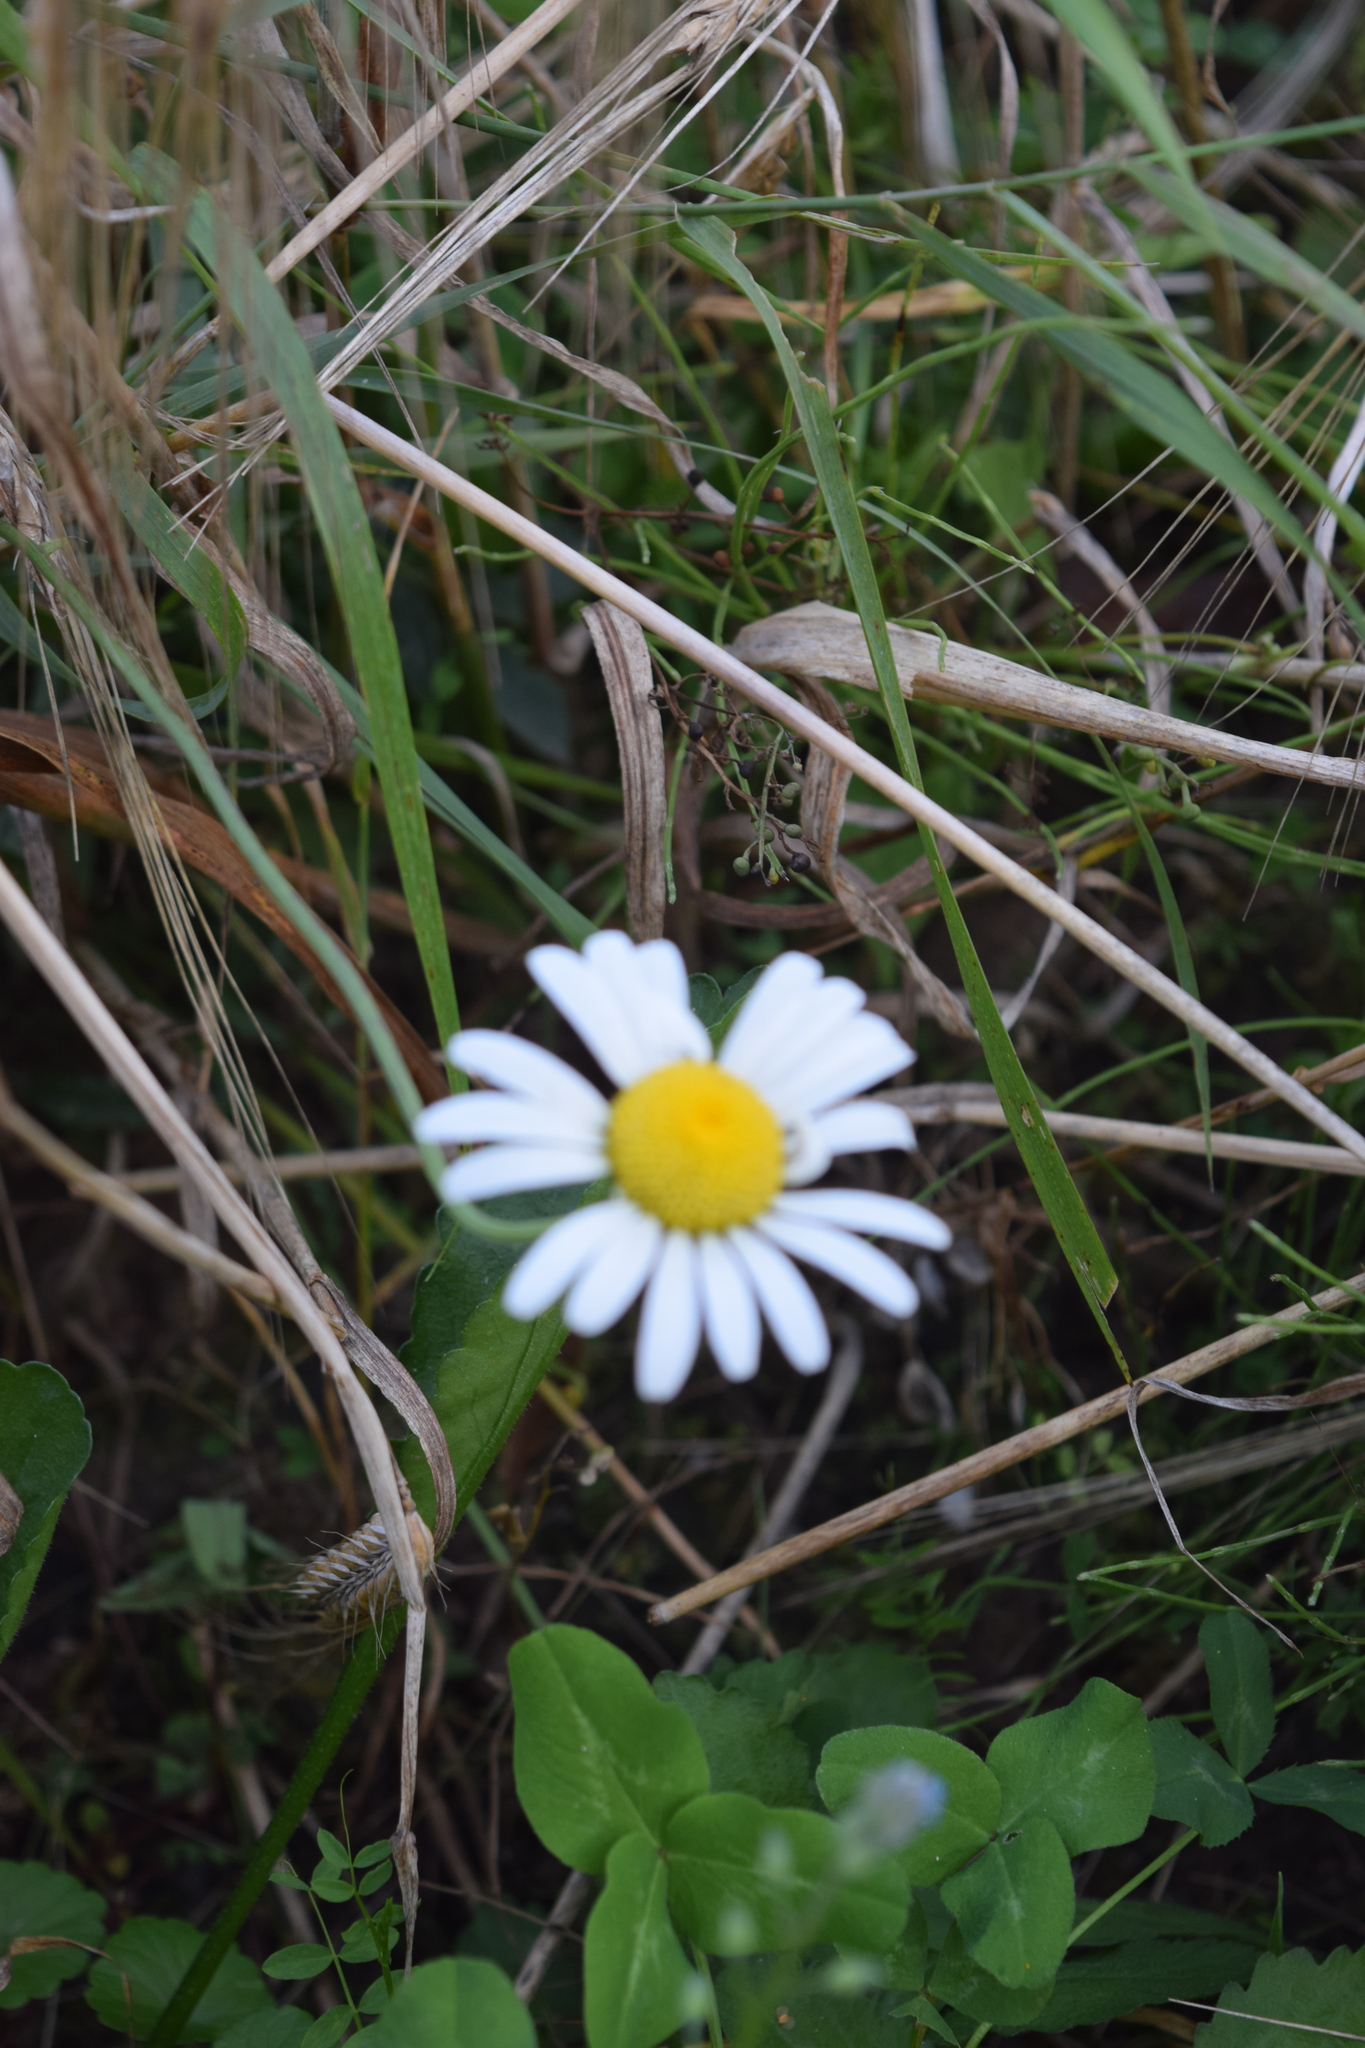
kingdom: Plantae
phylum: Tracheophyta
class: Magnoliopsida
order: Asterales
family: Asteraceae
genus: Leucanthemum
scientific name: Leucanthemum vulgare
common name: Oxeye daisy
